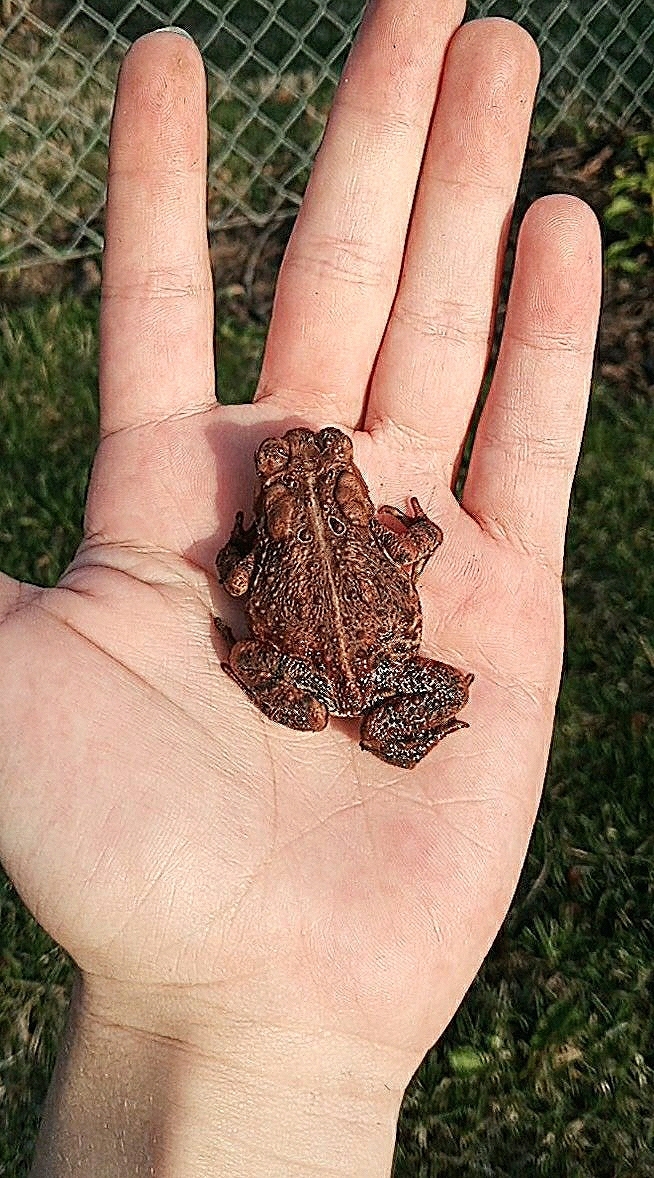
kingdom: Animalia
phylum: Chordata
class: Amphibia
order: Anura
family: Bufonidae
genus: Anaxyrus
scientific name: Anaxyrus americanus
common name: American toad
